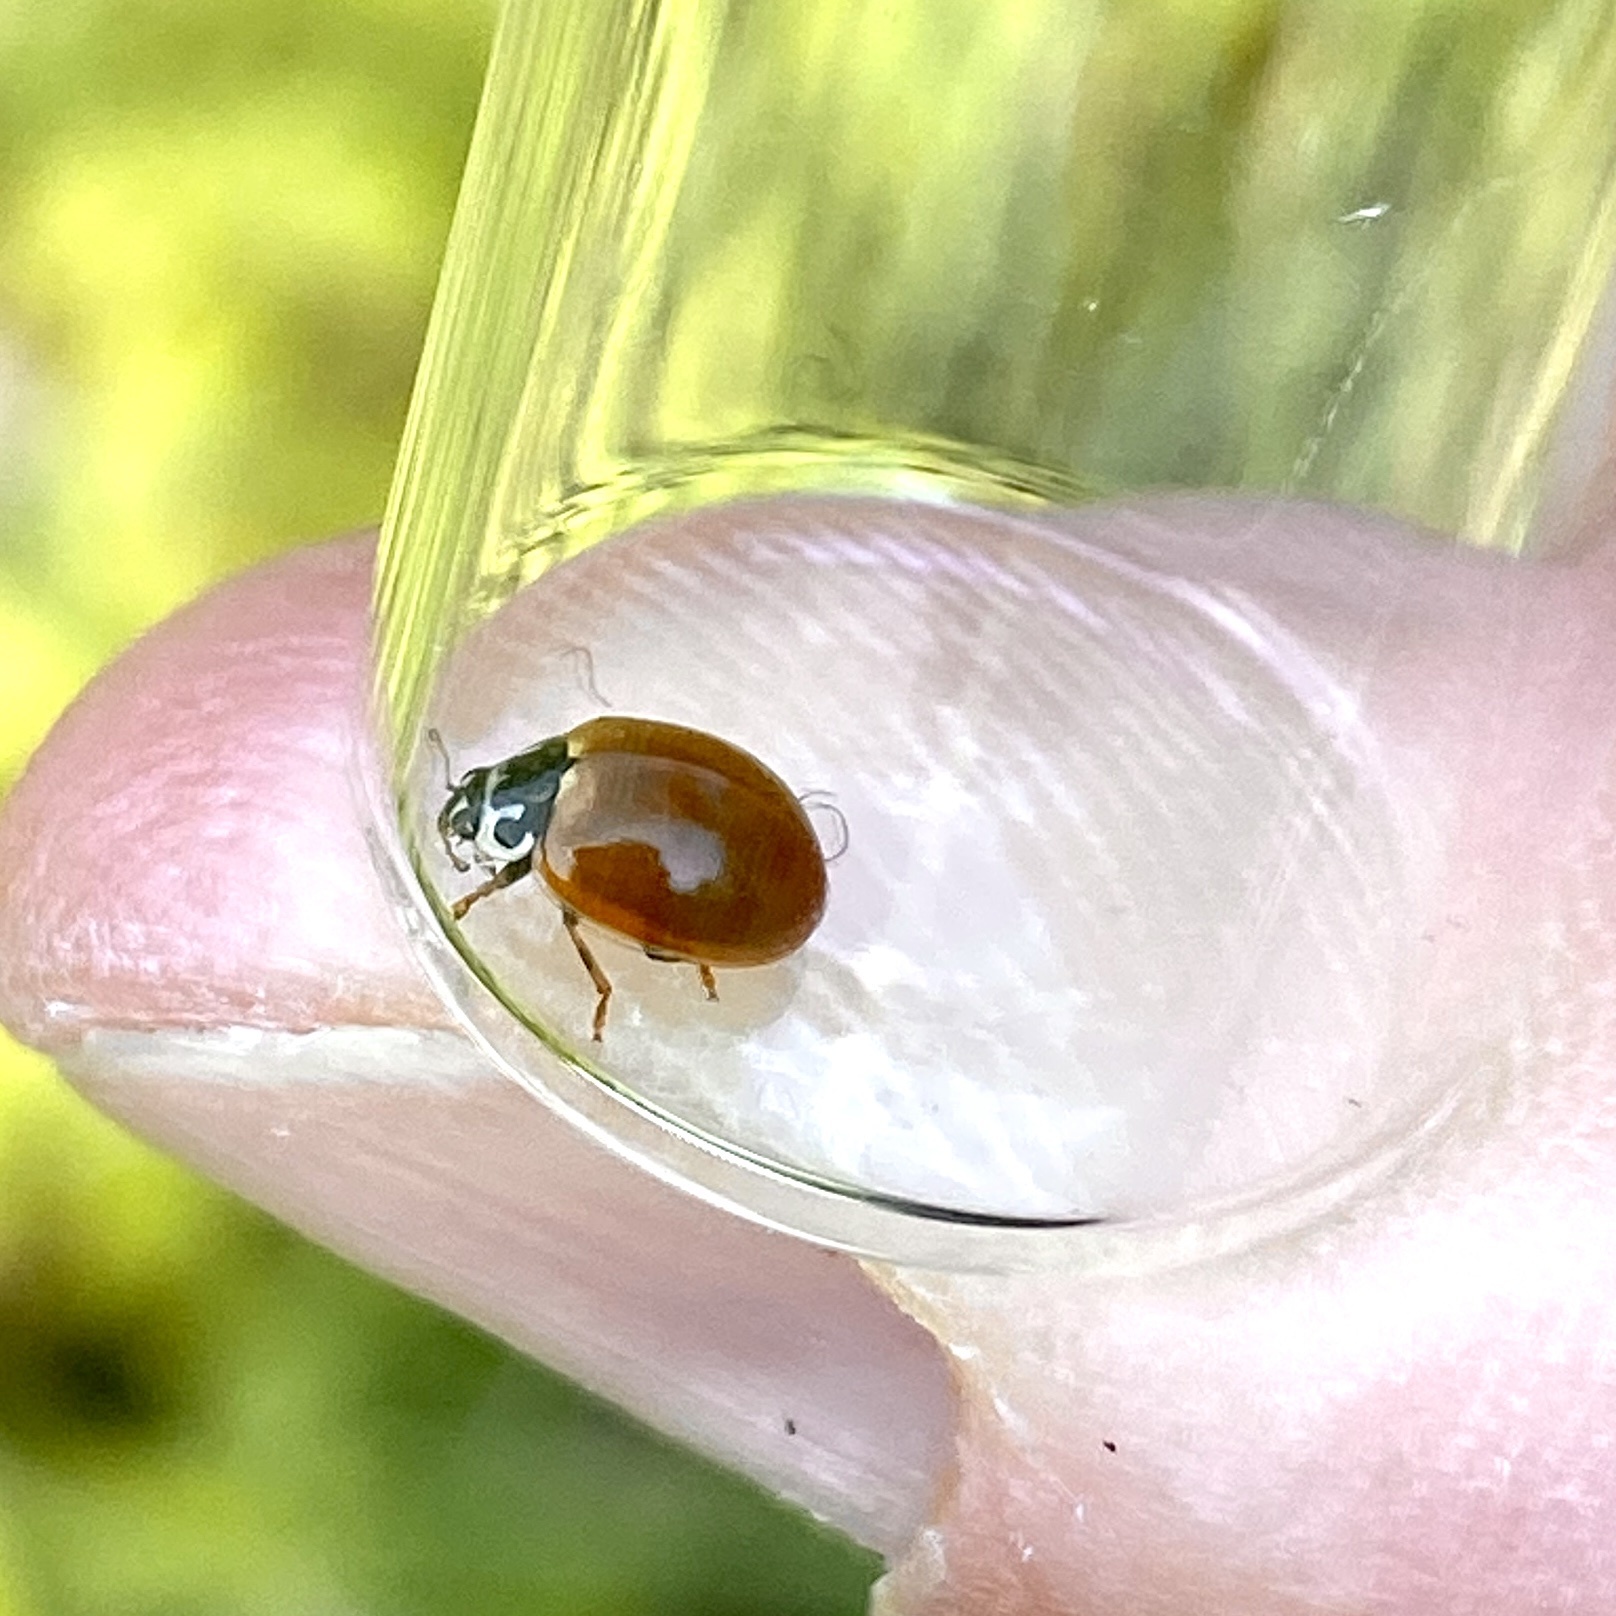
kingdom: Animalia
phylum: Arthropoda
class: Insecta
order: Coleoptera
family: Coccinellidae
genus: Cycloneda
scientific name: Cycloneda munda
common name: Polished lady beetle
